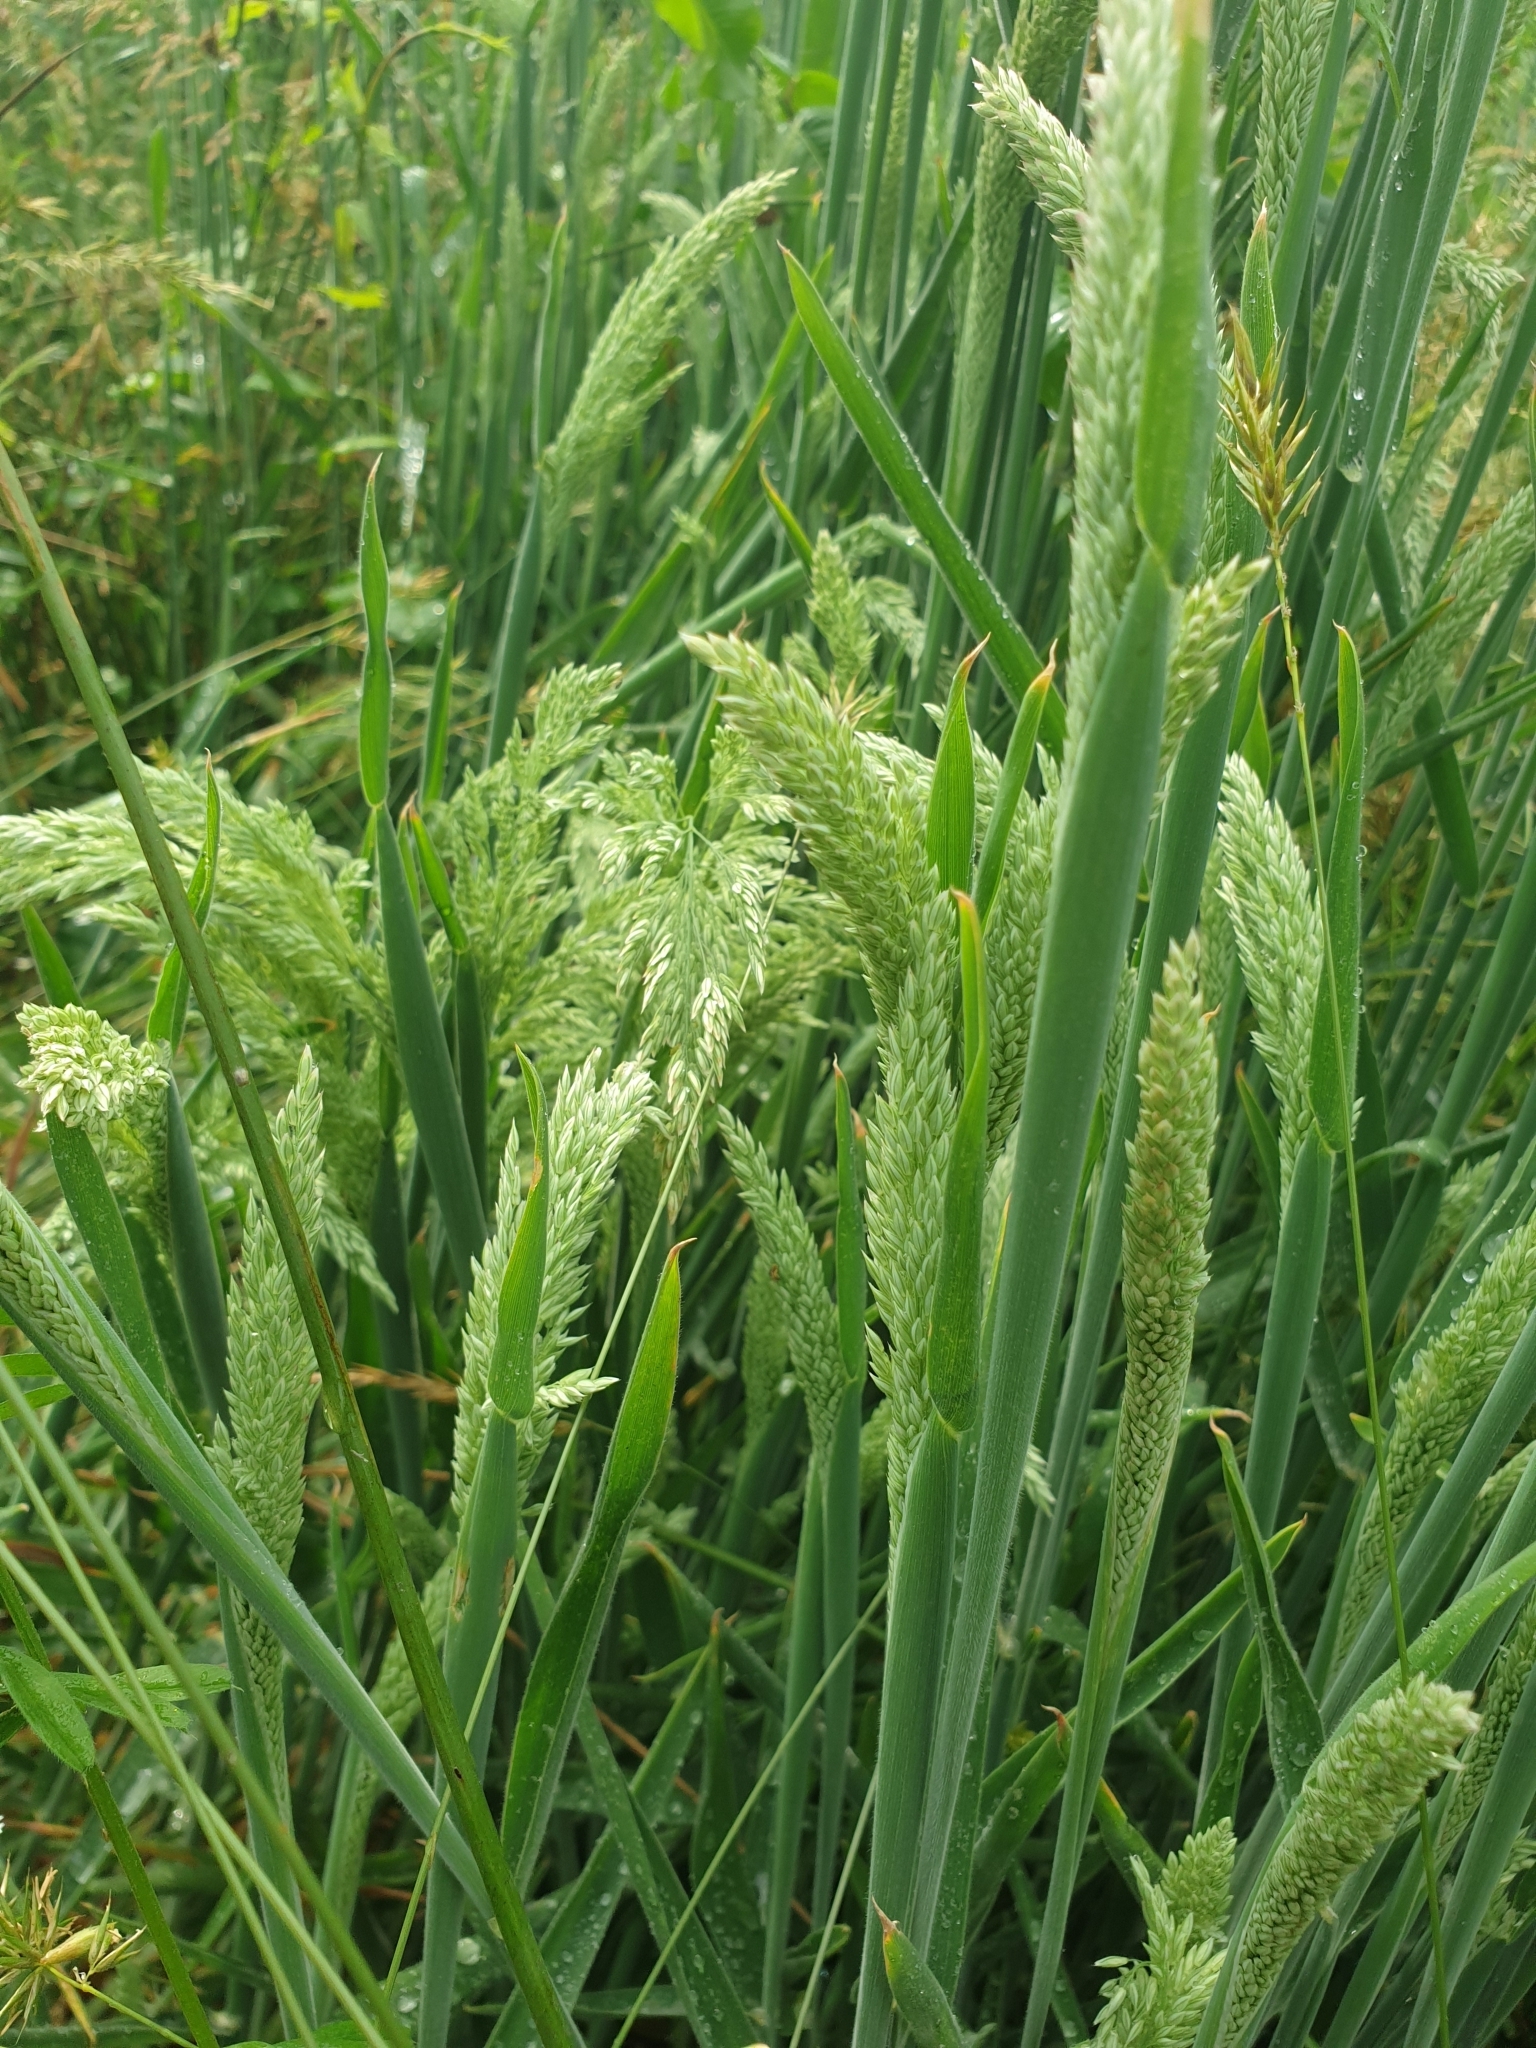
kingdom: Plantae
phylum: Tracheophyta
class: Liliopsida
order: Poales
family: Poaceae
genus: Holcus
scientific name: Holcus lanatus
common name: Yorkshire-fog
